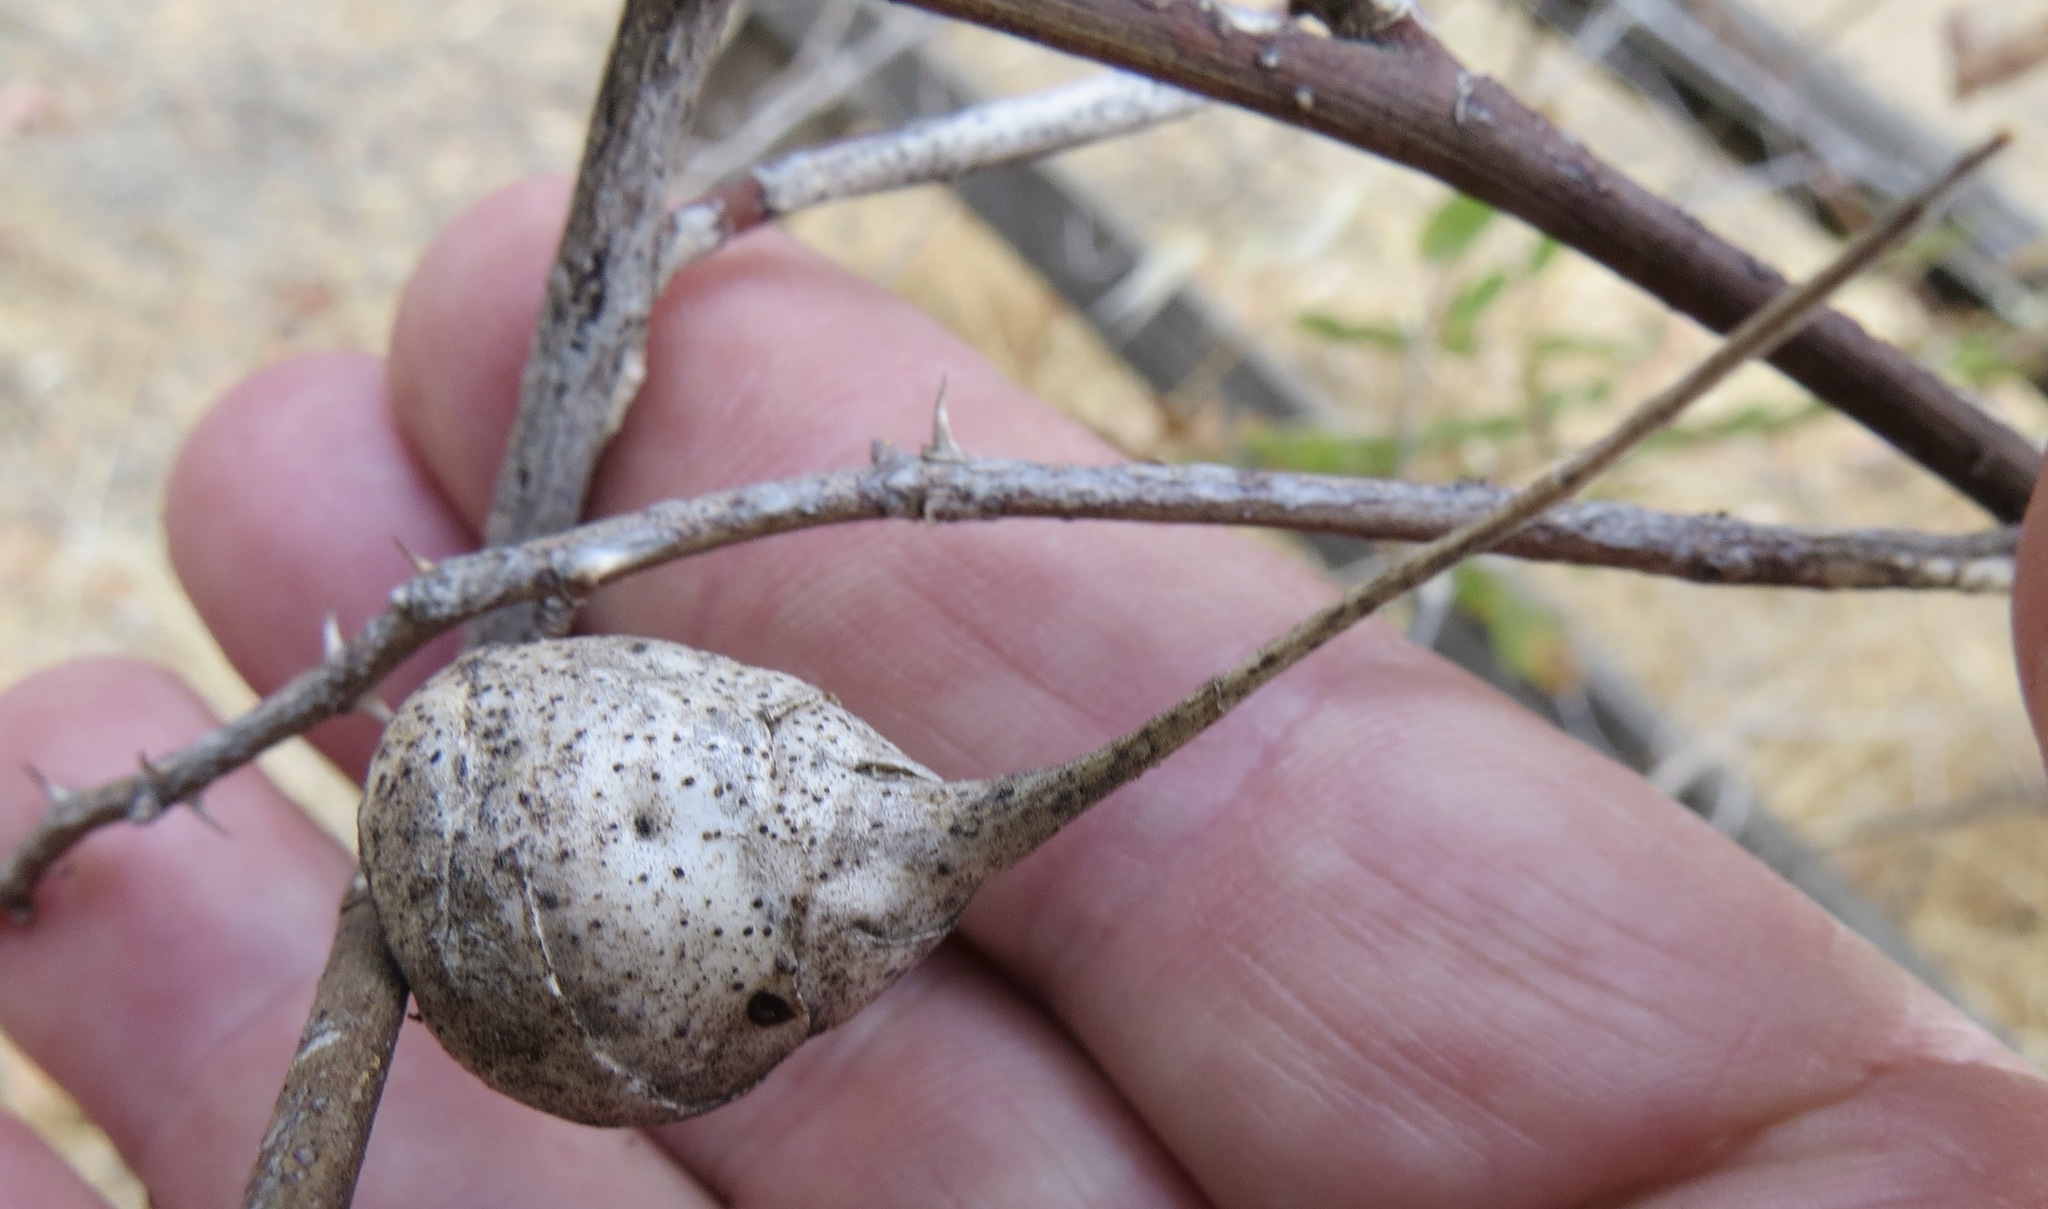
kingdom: Animalia
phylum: Arthropoda
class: Insecta
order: Hymenoptera
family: Cynipidae
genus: Diplolepis
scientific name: Diplolepis
